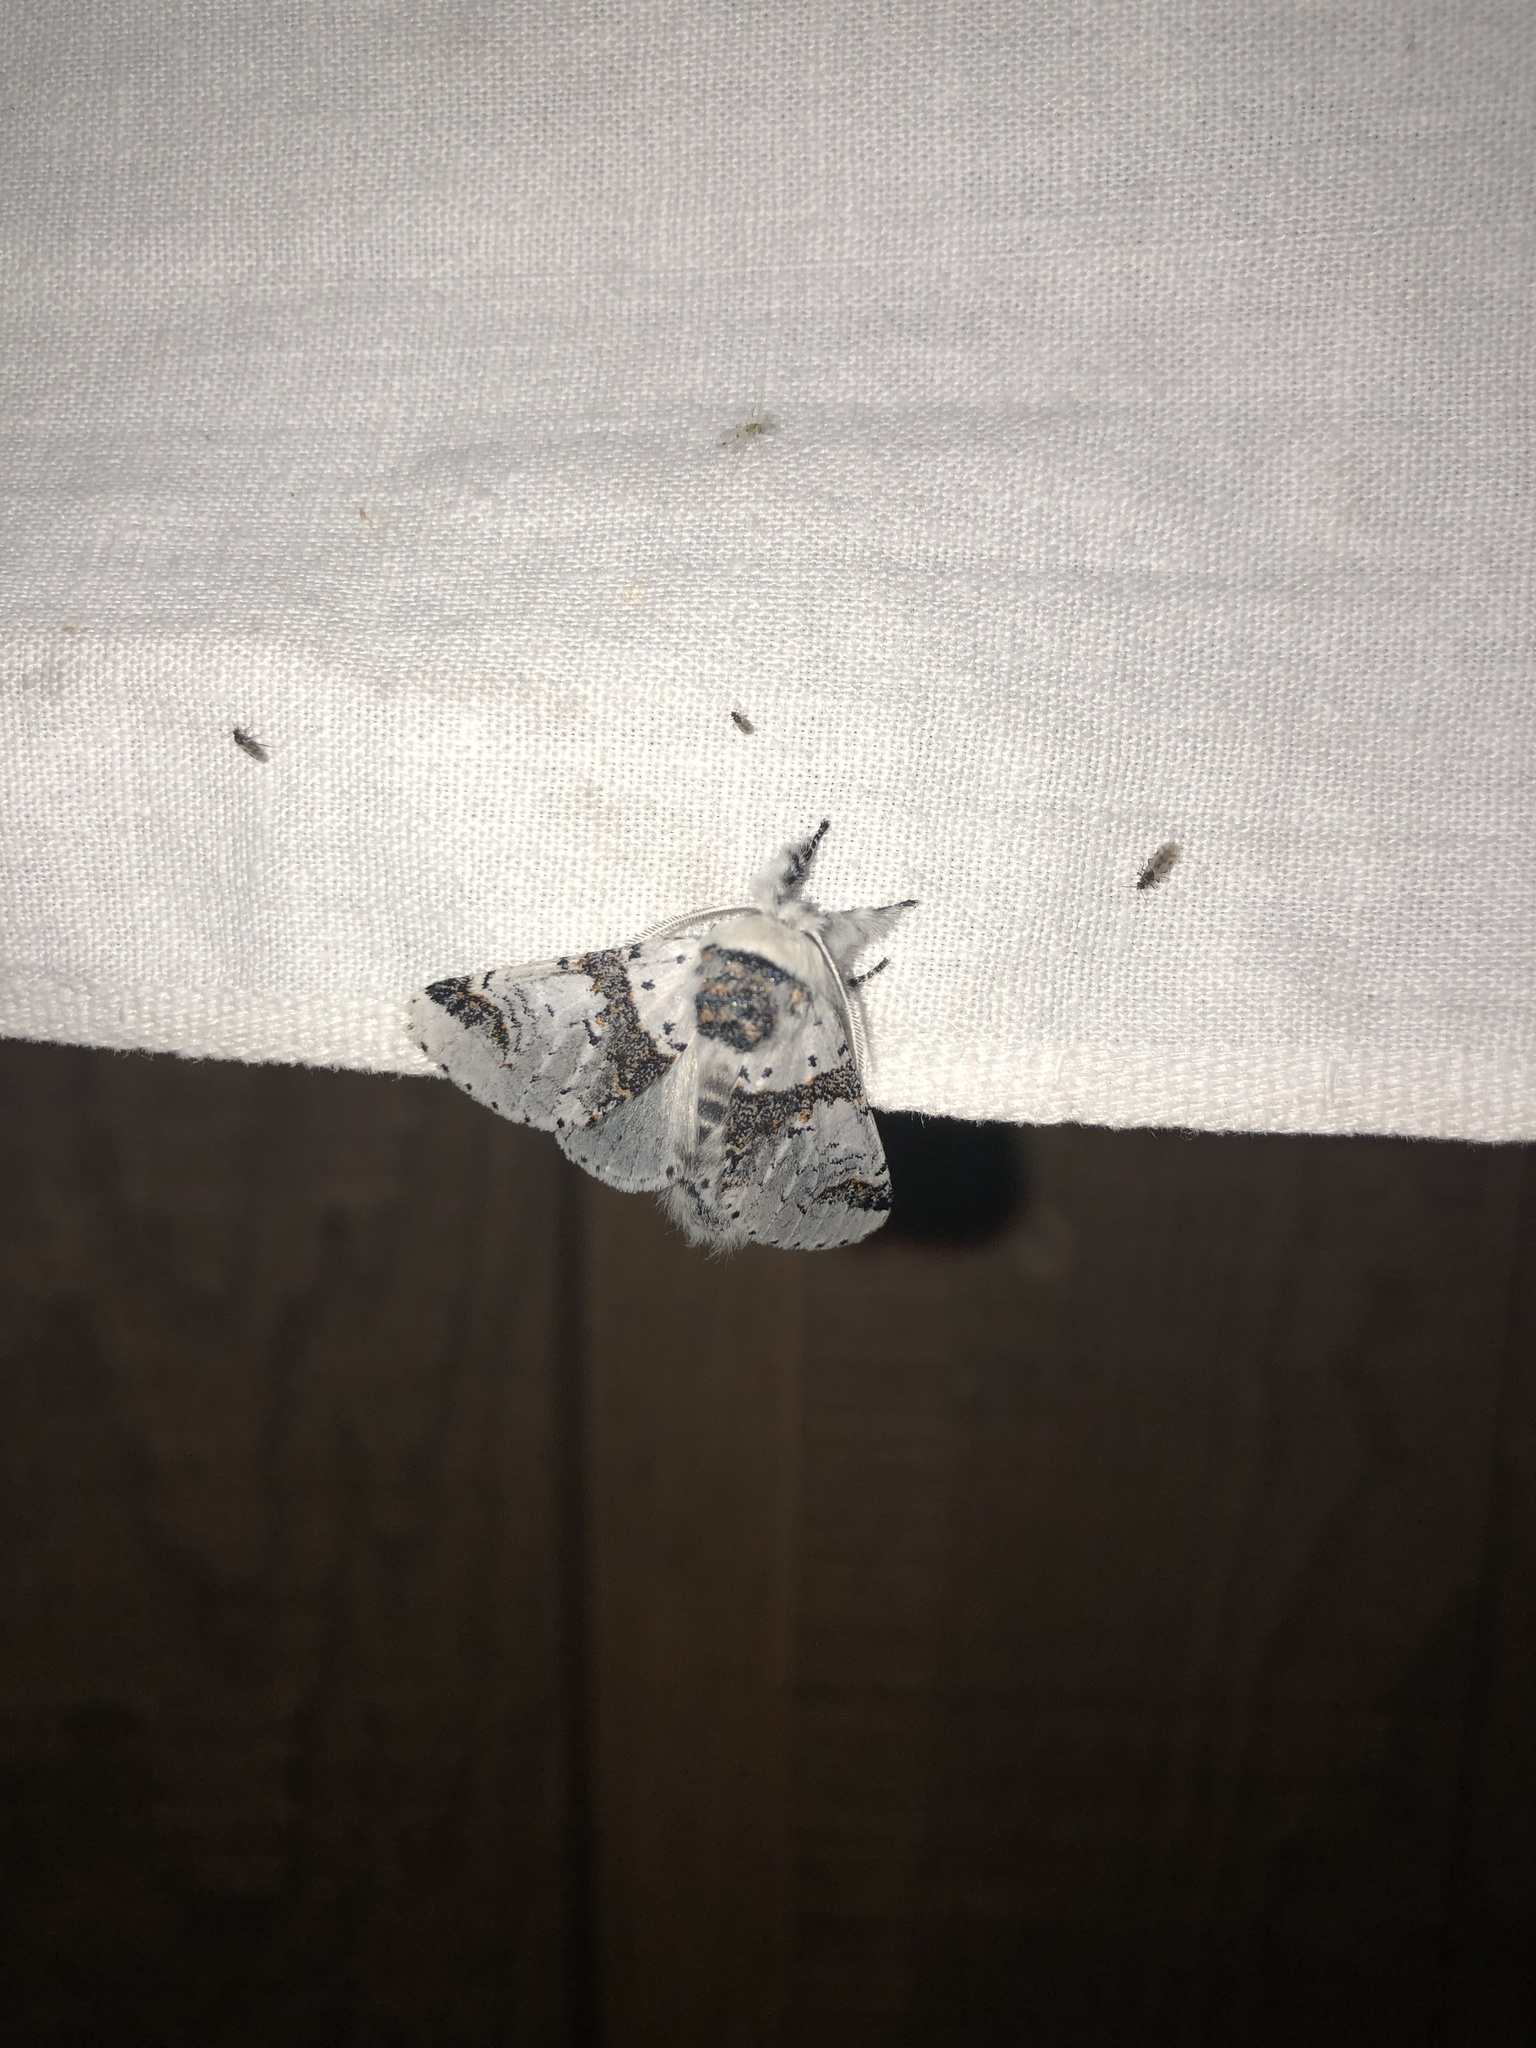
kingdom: Animalia
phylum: Arthropoda
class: Insecta
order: Lepidoptera
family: Notodontidae
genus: Furcula
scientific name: Furcula scolopendrina
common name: Zigzag furcula moth
